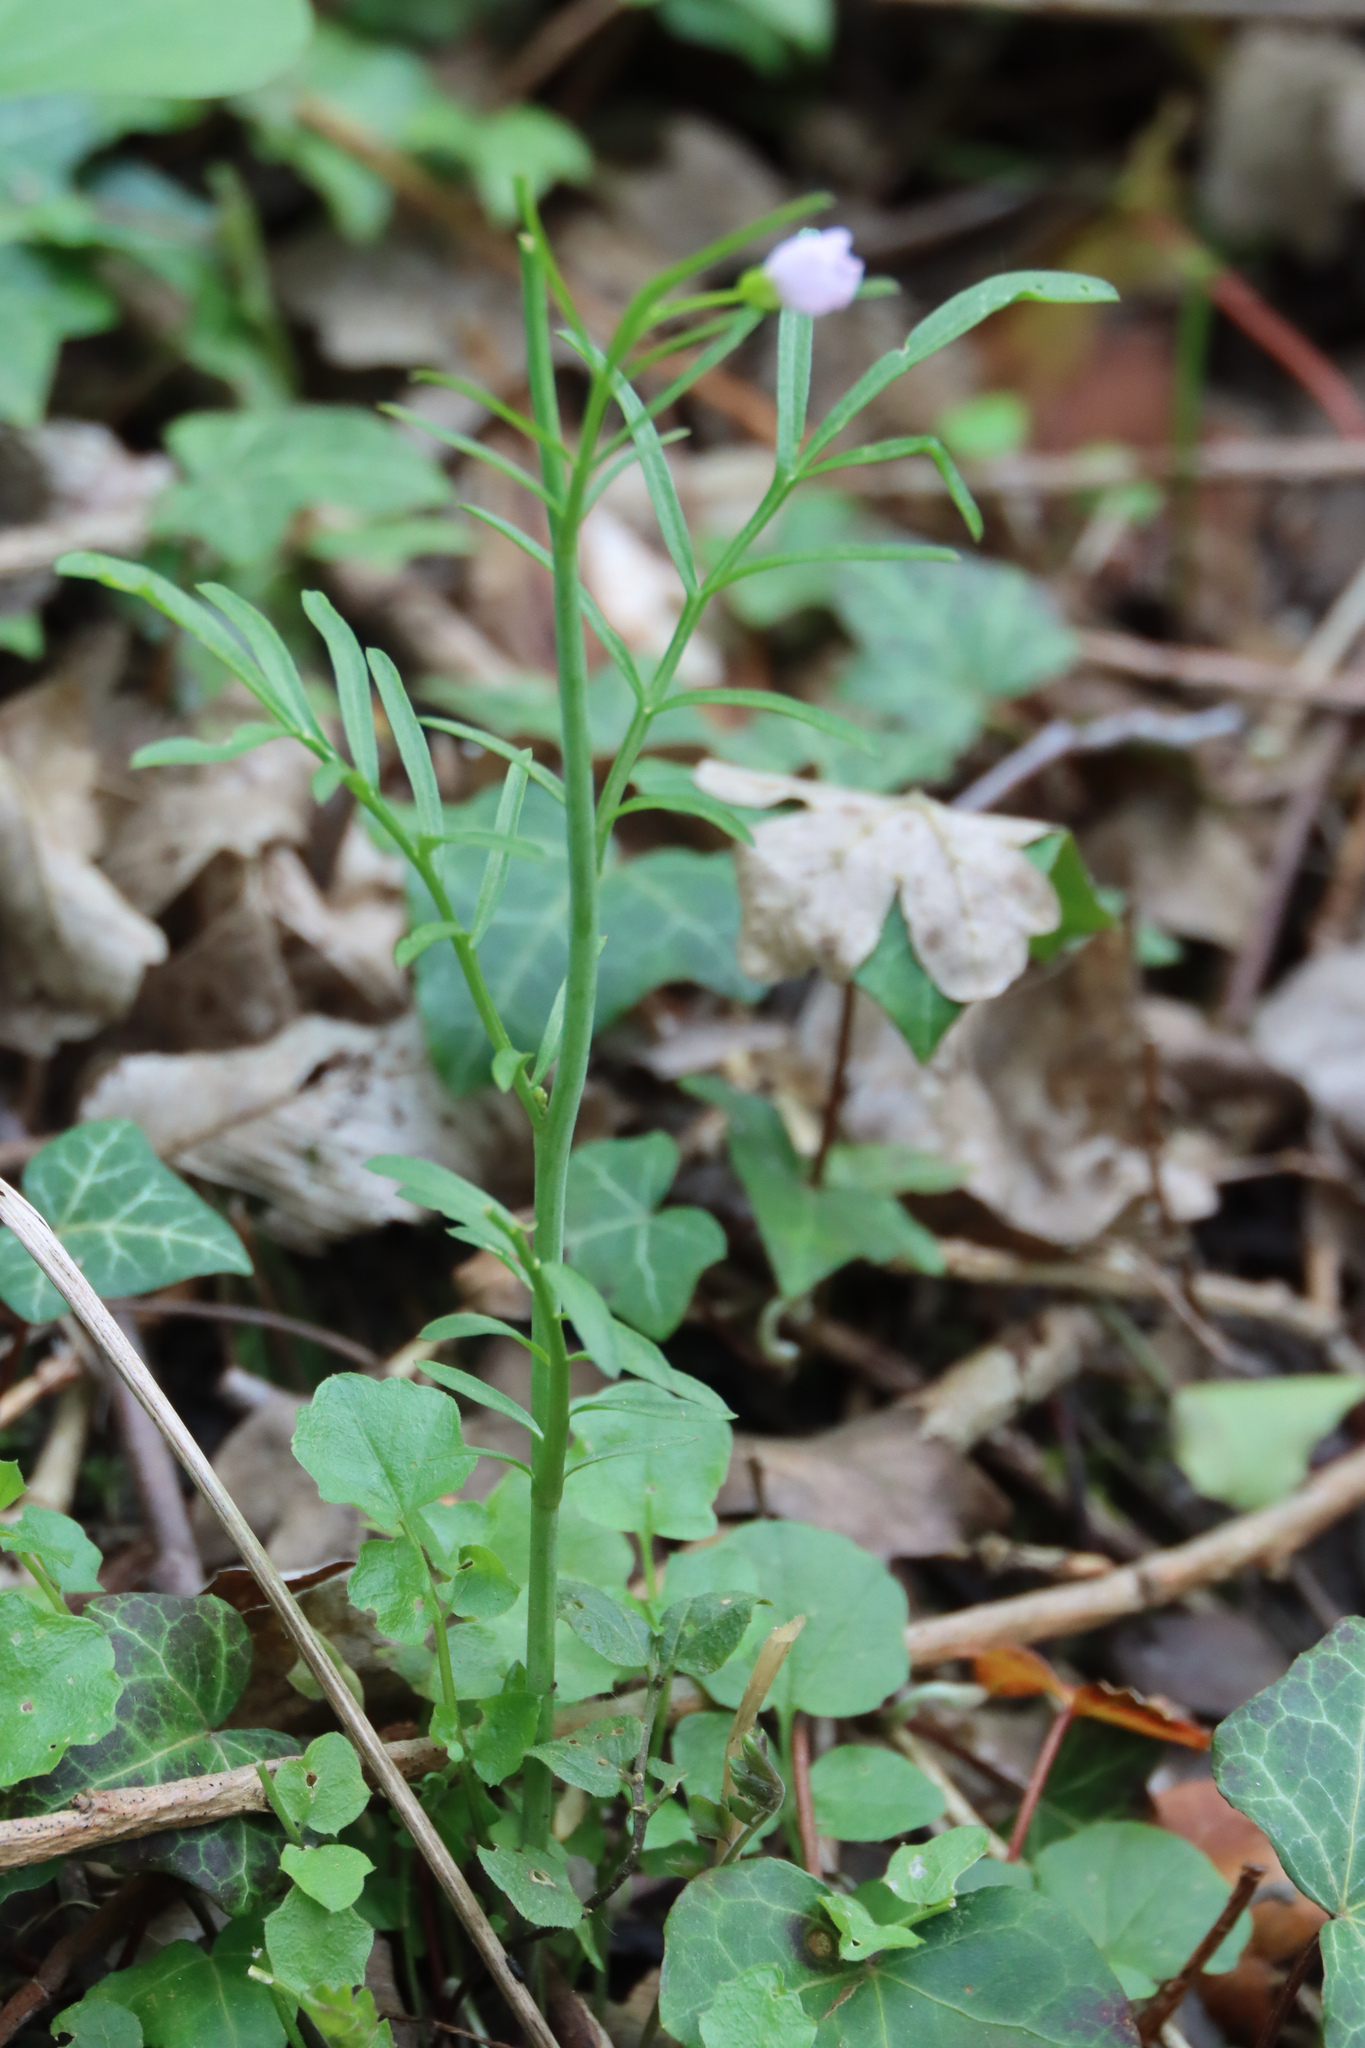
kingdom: Plantae
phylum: Tracheophyta
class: Magnoliopsida
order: Brassicales
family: Brassicaceae
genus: Cardamine
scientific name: Cardamine pratensis
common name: Cuckoo flower
